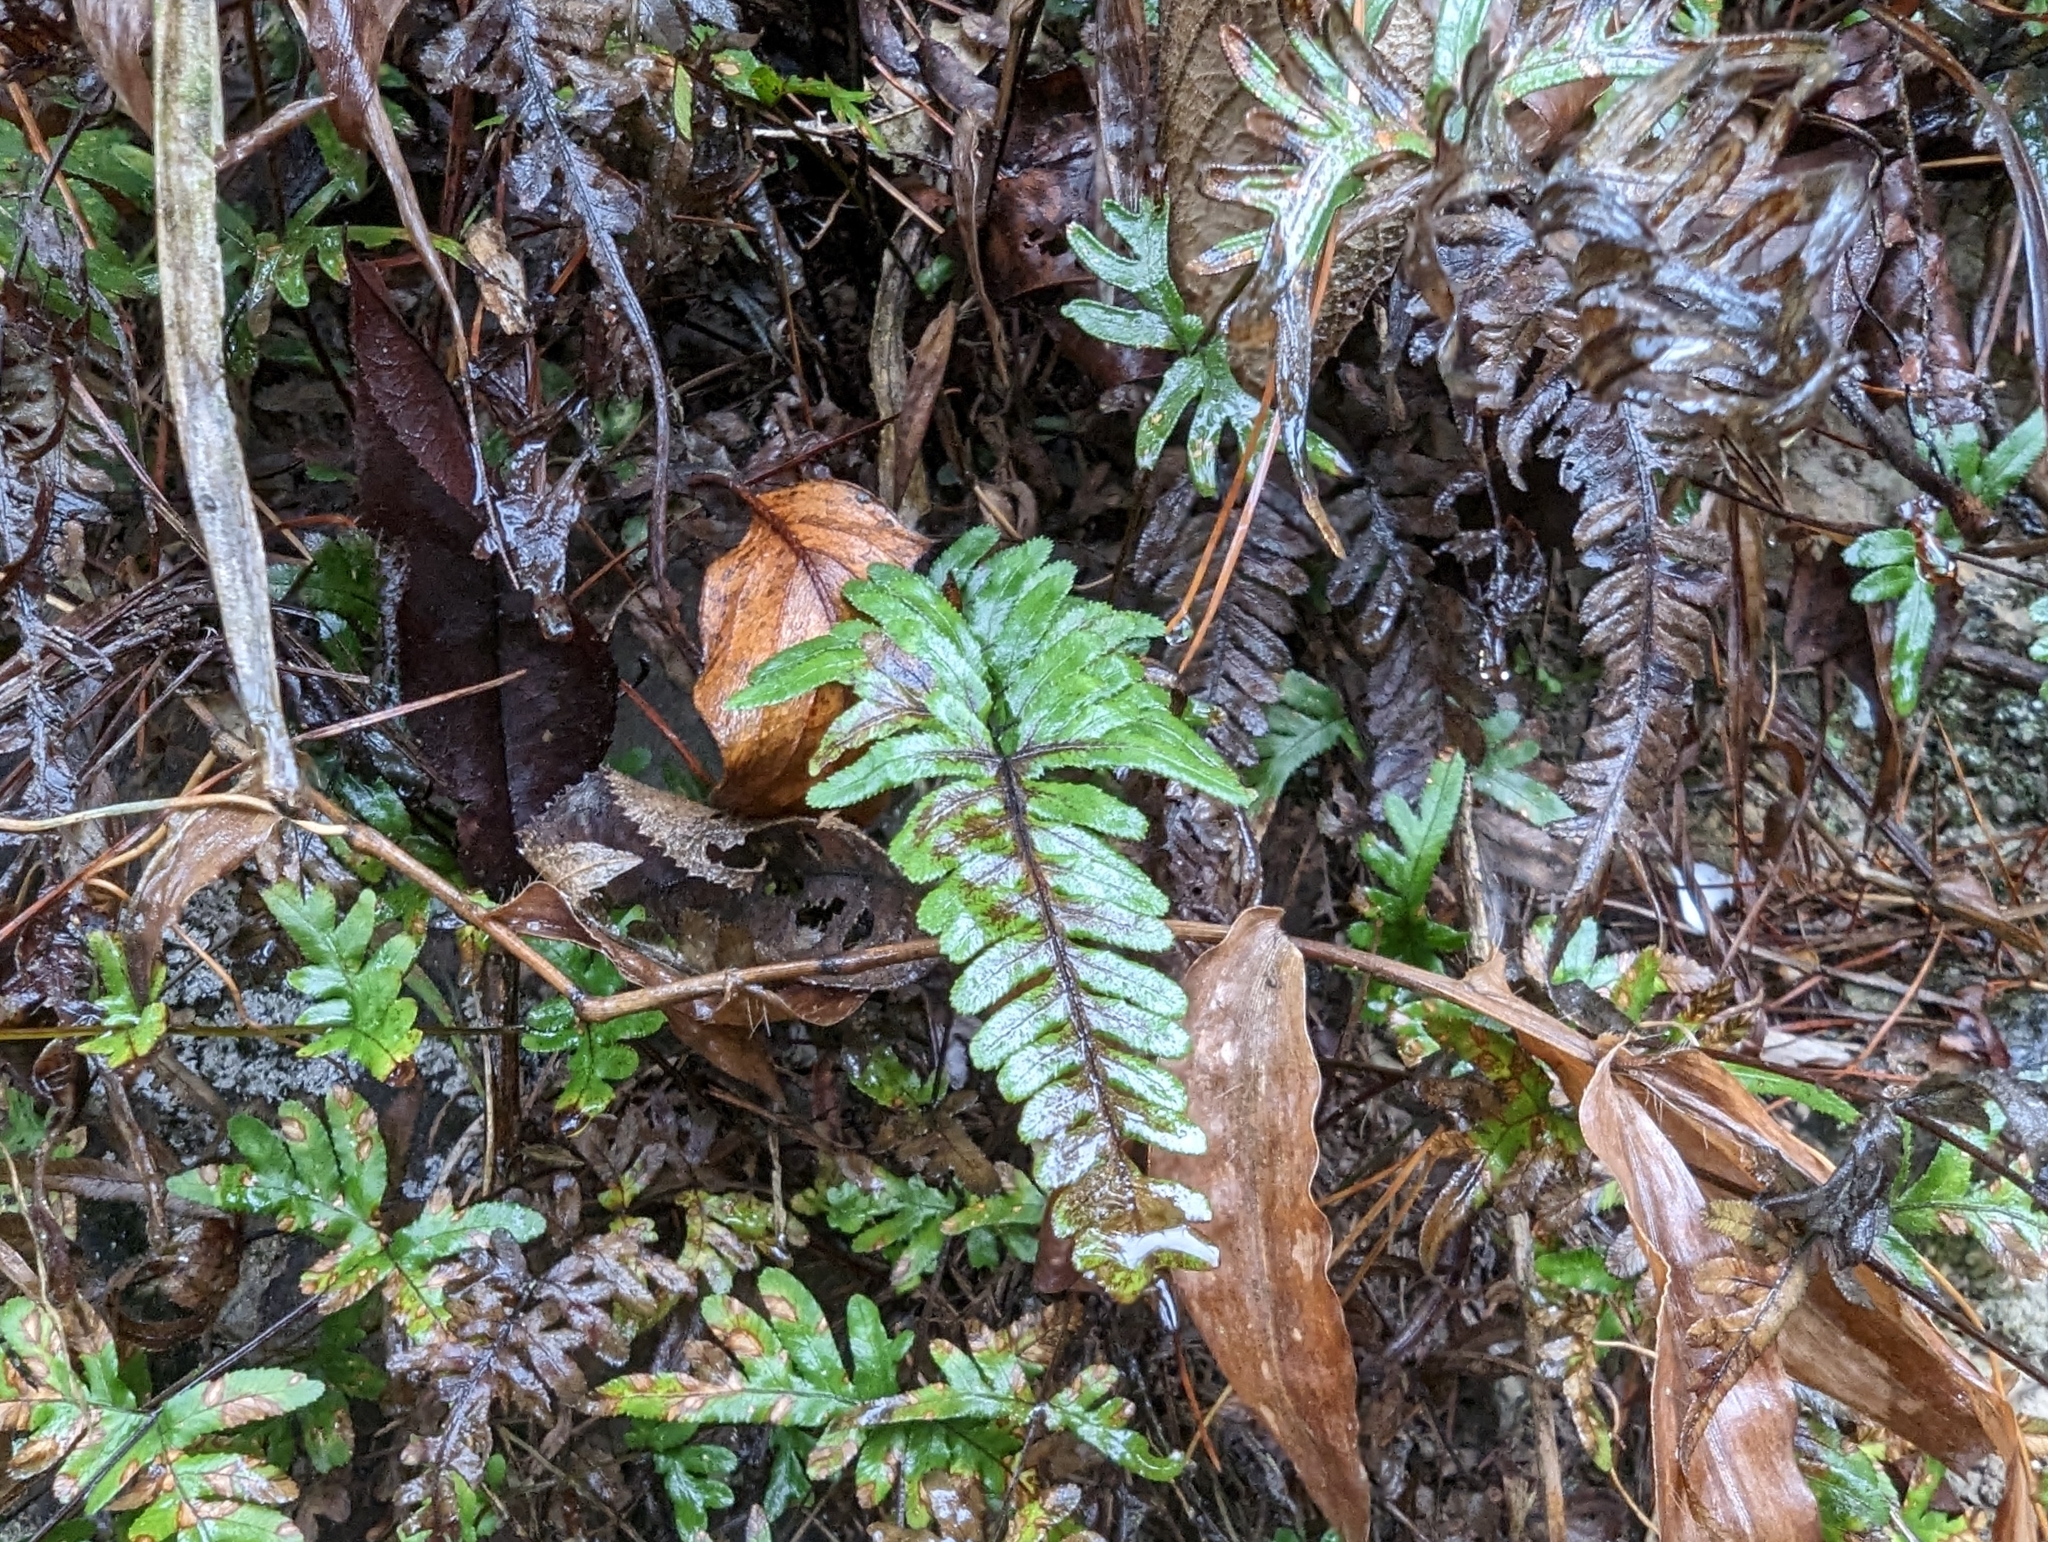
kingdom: Plantae
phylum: Tracheophyta
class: Polypodiopsida
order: Polypodiales
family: Pteridaceae
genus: Pteris
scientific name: Pteris semipinnata
